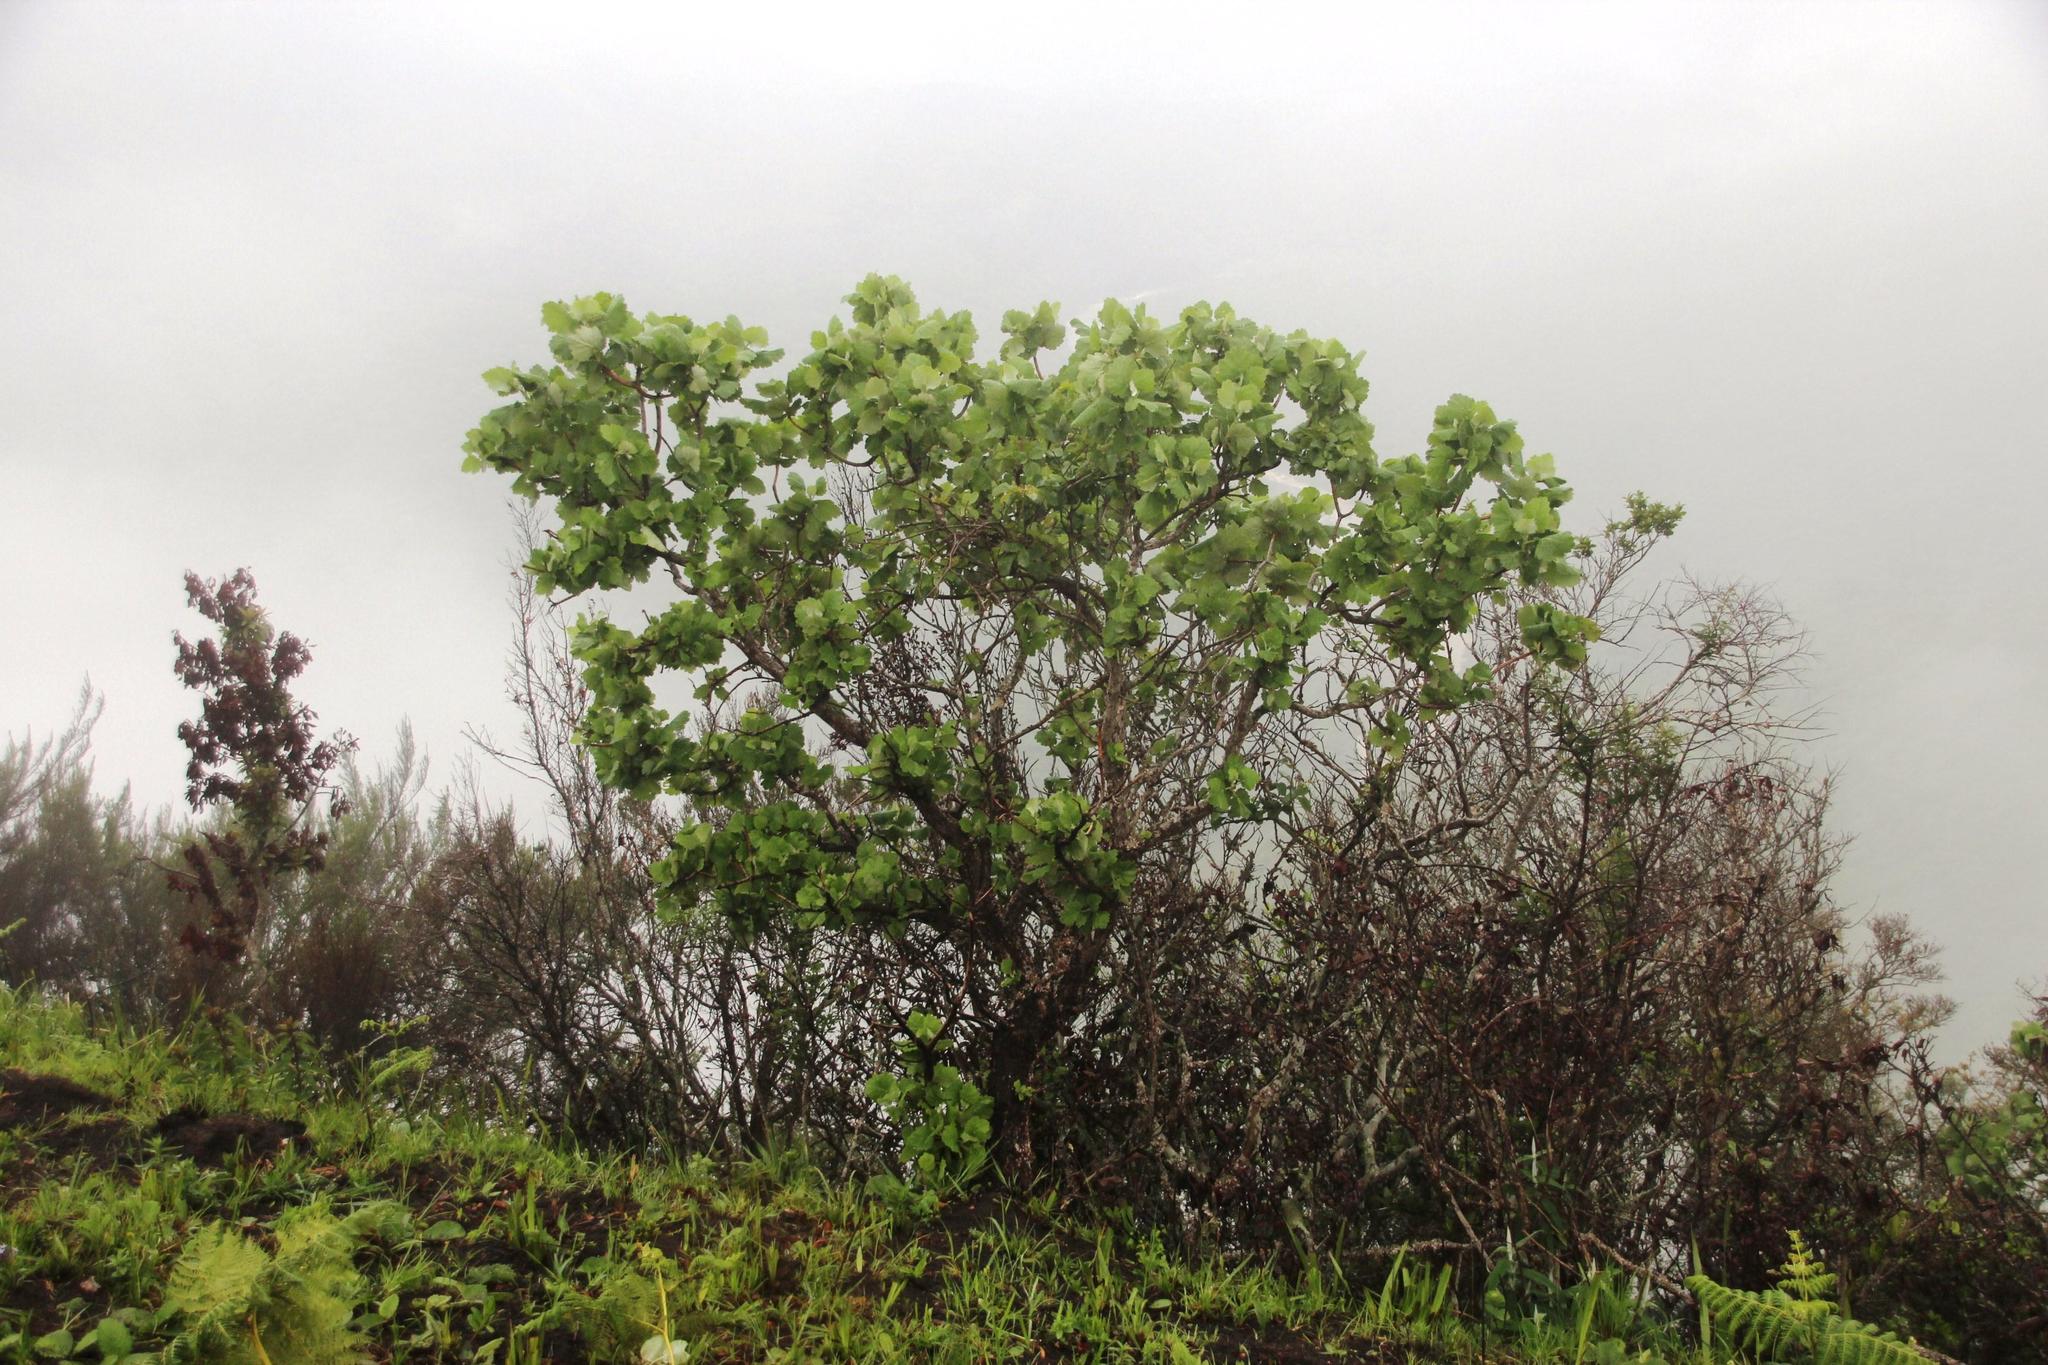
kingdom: Plantae
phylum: Tracheophyta
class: Magnoliopsida
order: Geraniales
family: Francoaceae
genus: Greyia
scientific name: Greyia radlkoferi
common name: Natal bottlebrush
